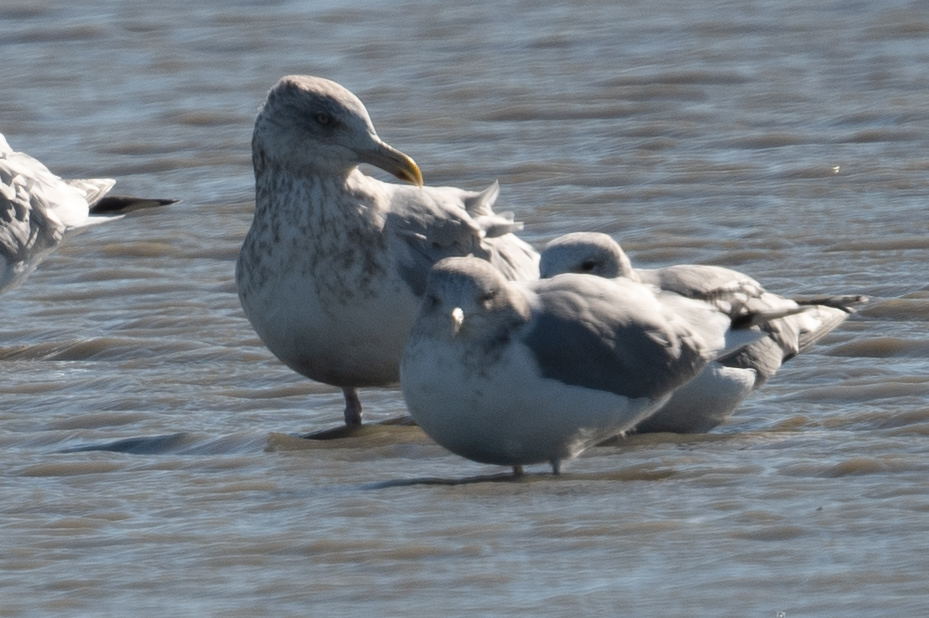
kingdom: Animalia
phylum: Chordata
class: Aves
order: Charadriiformes
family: Laridae
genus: Larus
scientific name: Larus argentatus
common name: Herring gull
